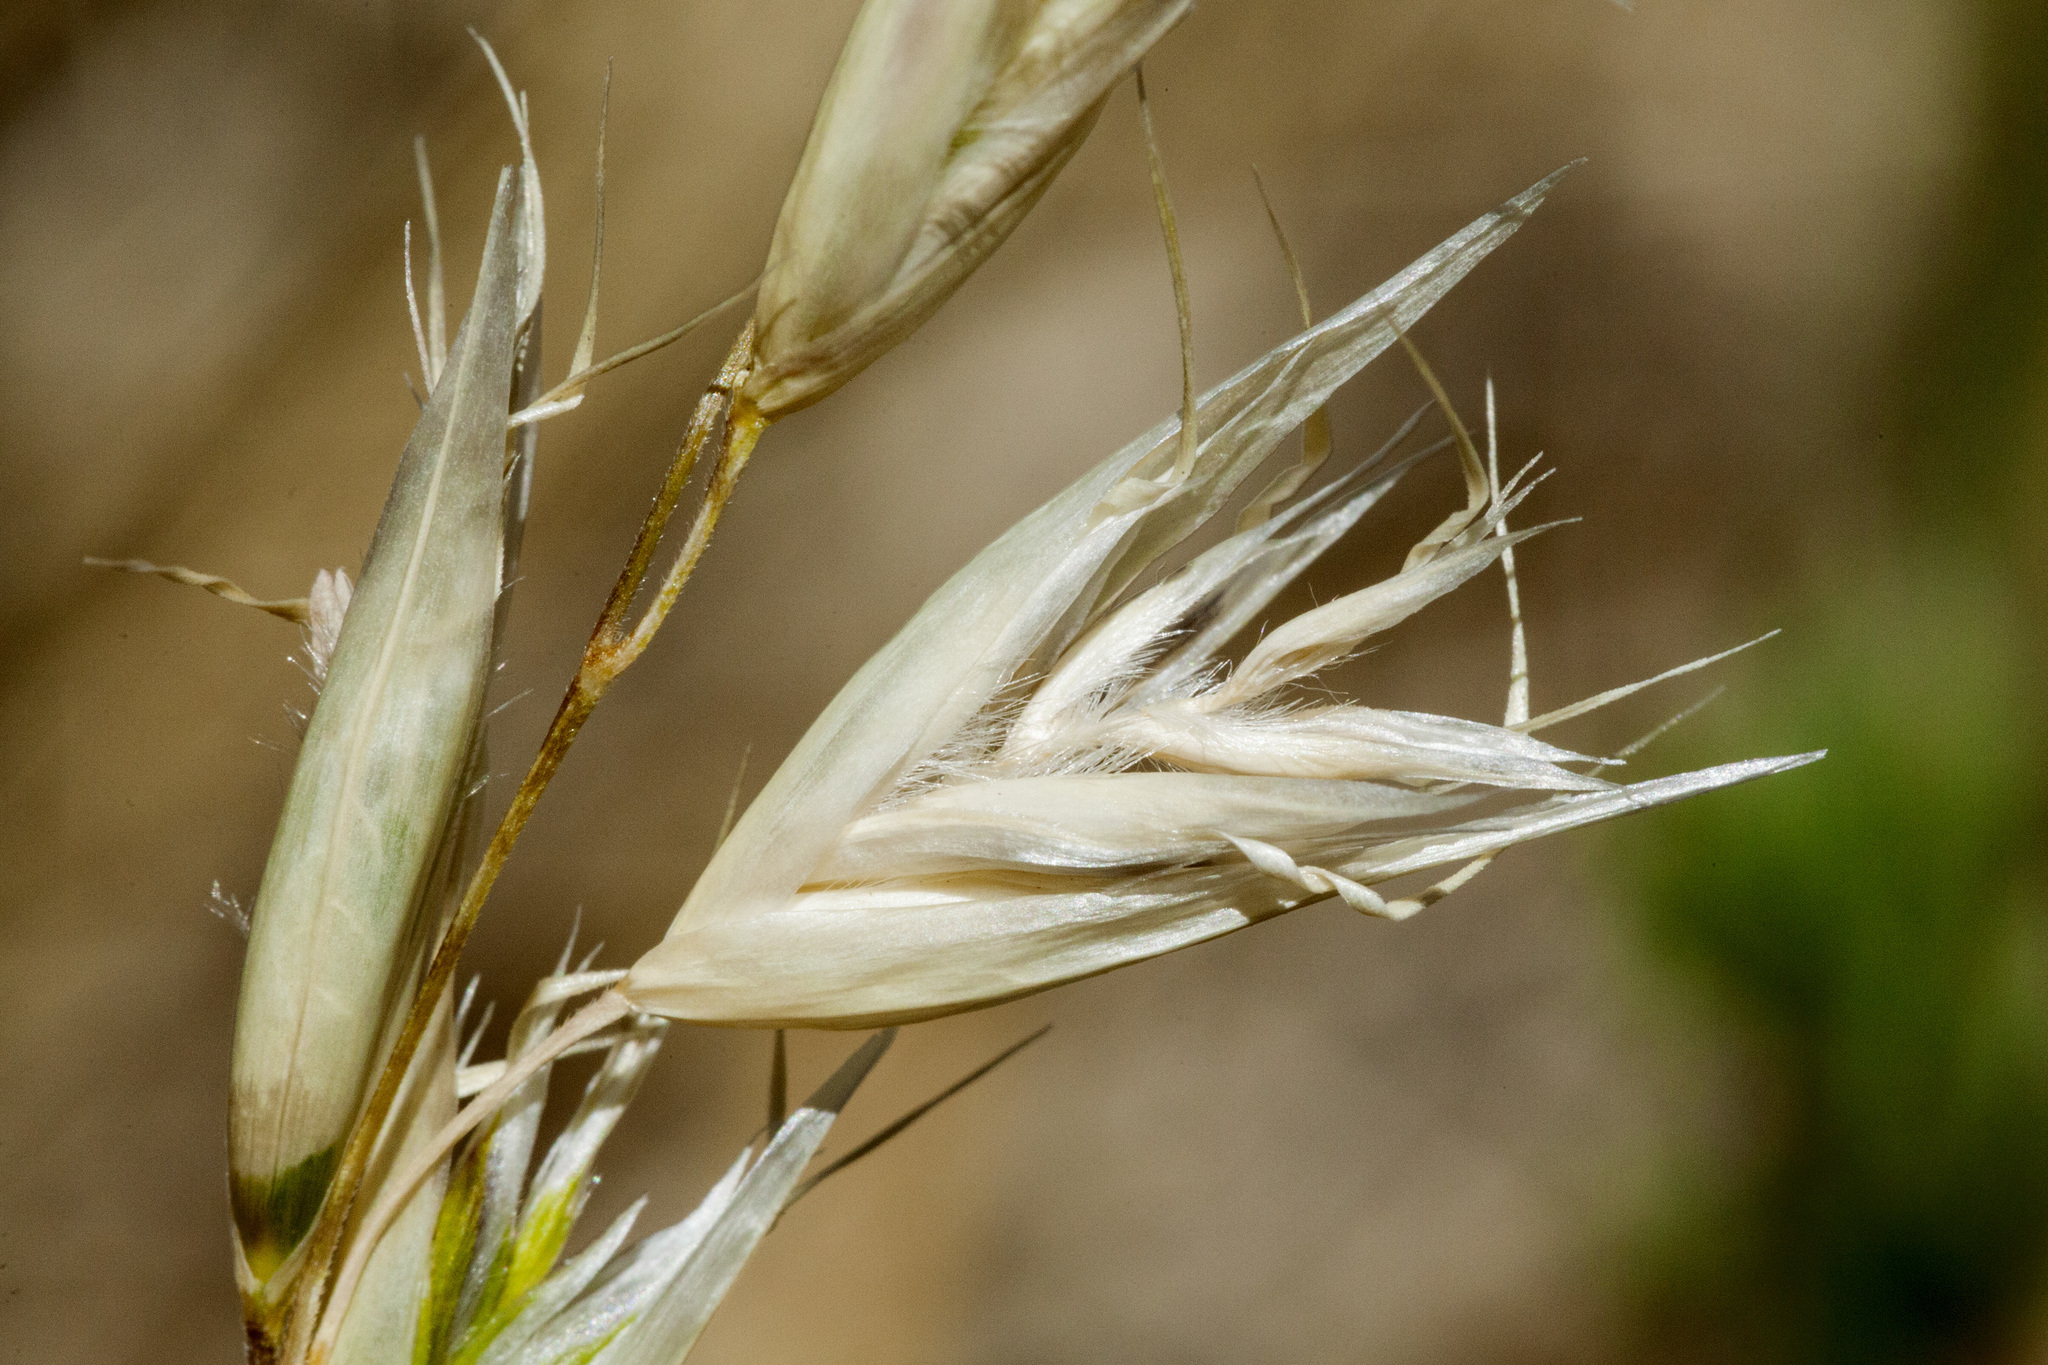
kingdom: Plantae
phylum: Tracheophyta
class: Liliopsida
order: Poales
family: Poaceae
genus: Danthonia
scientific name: Danthonia intermedia
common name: Intermediate oat grass
